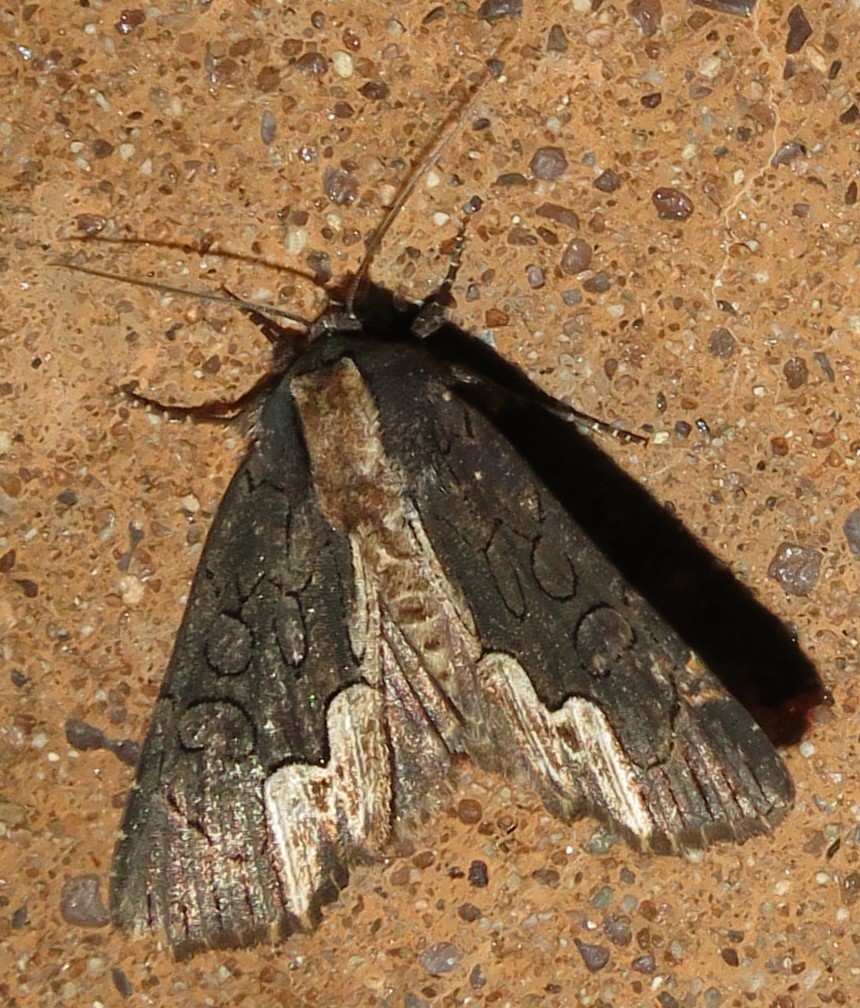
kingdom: Animalia
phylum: Arthropoda
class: Insecta
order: Lepidoptera
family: Noctuidae
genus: Dypterygia
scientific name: Dypterygia rozmani
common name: American bird's-wing
